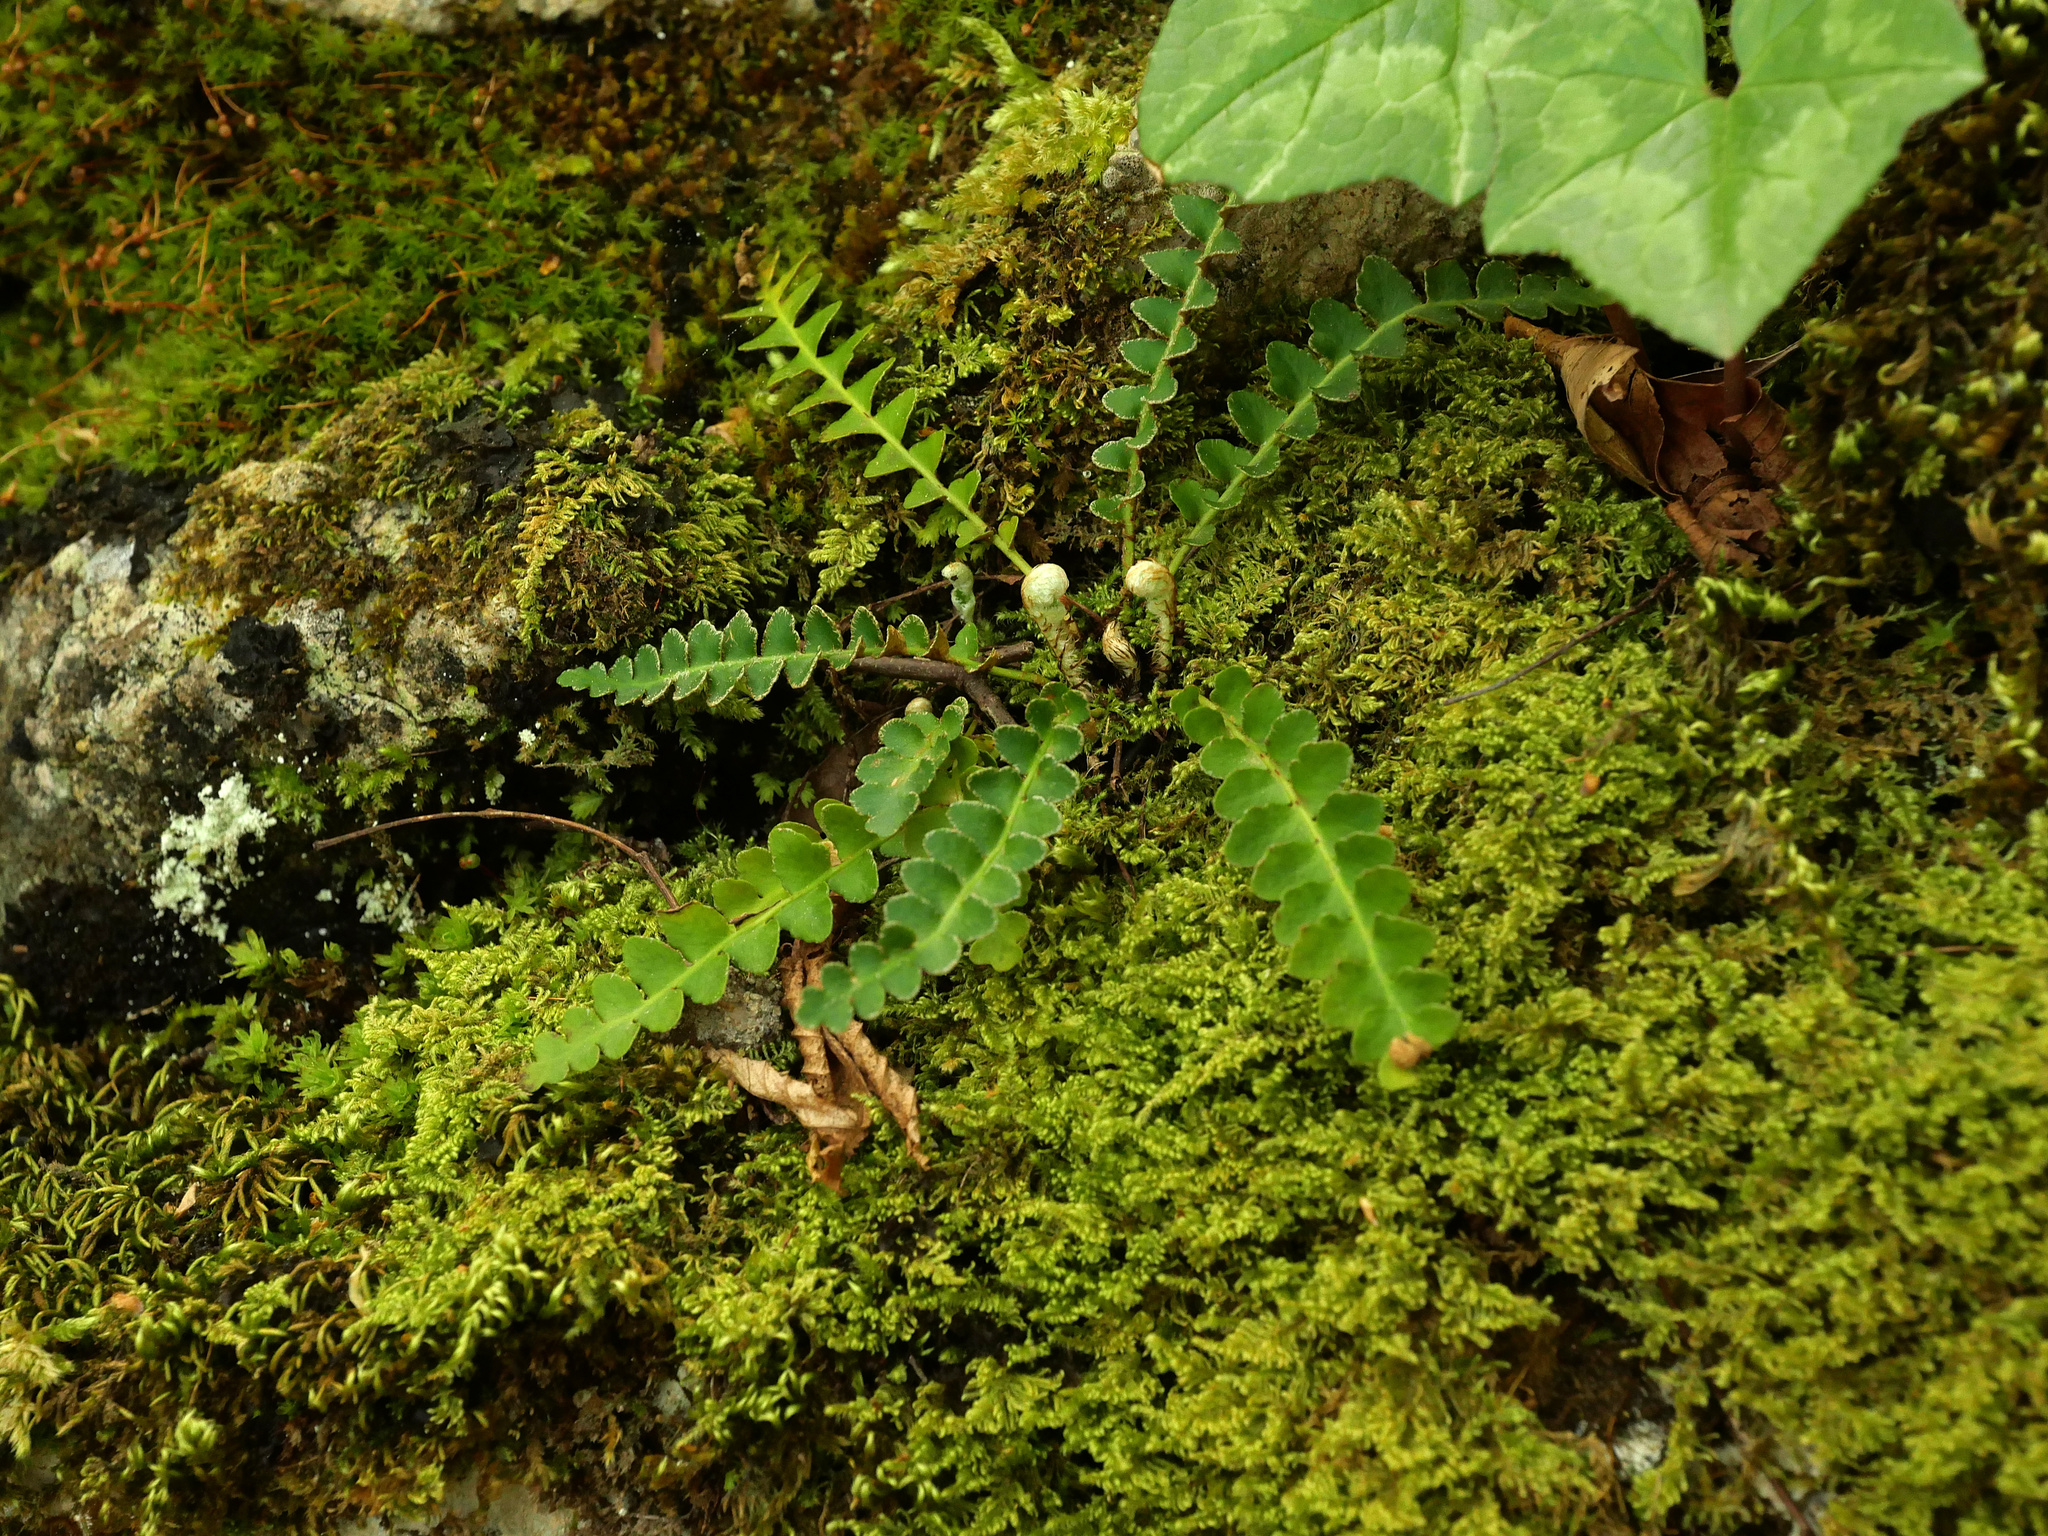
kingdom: Plantae
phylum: Tracheophyta
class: Polypodiopsida
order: Polypodiales
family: Aspleniaceae
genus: Asplenium
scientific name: Asplenium ceterach
